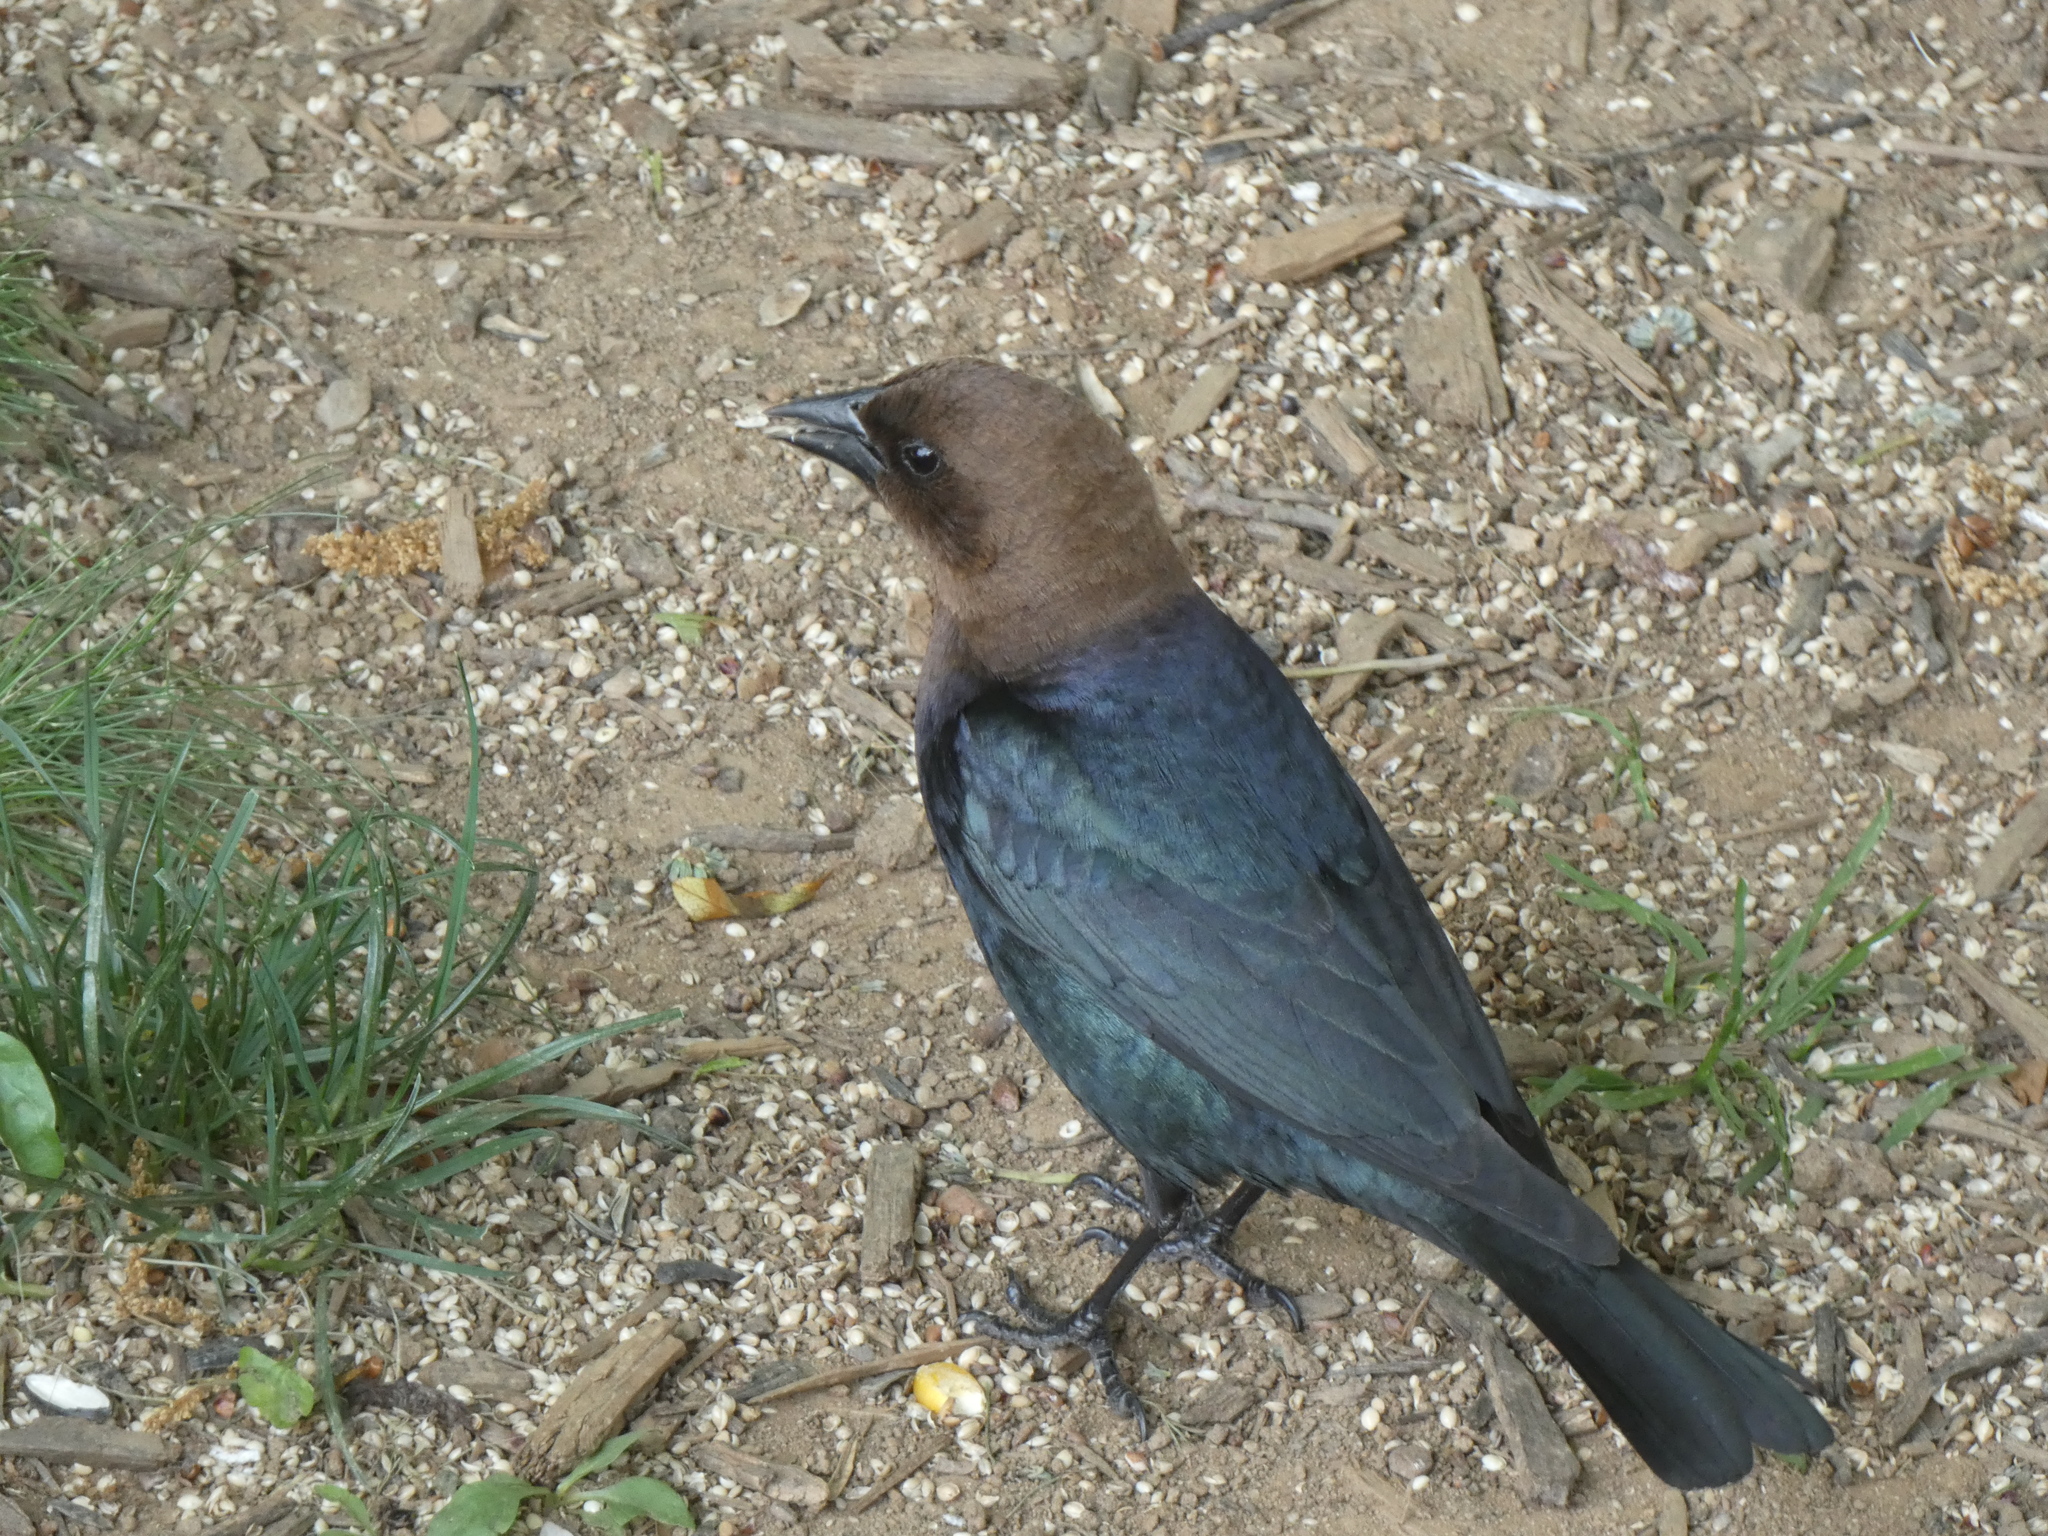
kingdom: Animalia
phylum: Chordata
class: Aves
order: Passeriformes
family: Icteridae
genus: Molothrus
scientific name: Molothrus ater
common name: Brown-headed cowbird
